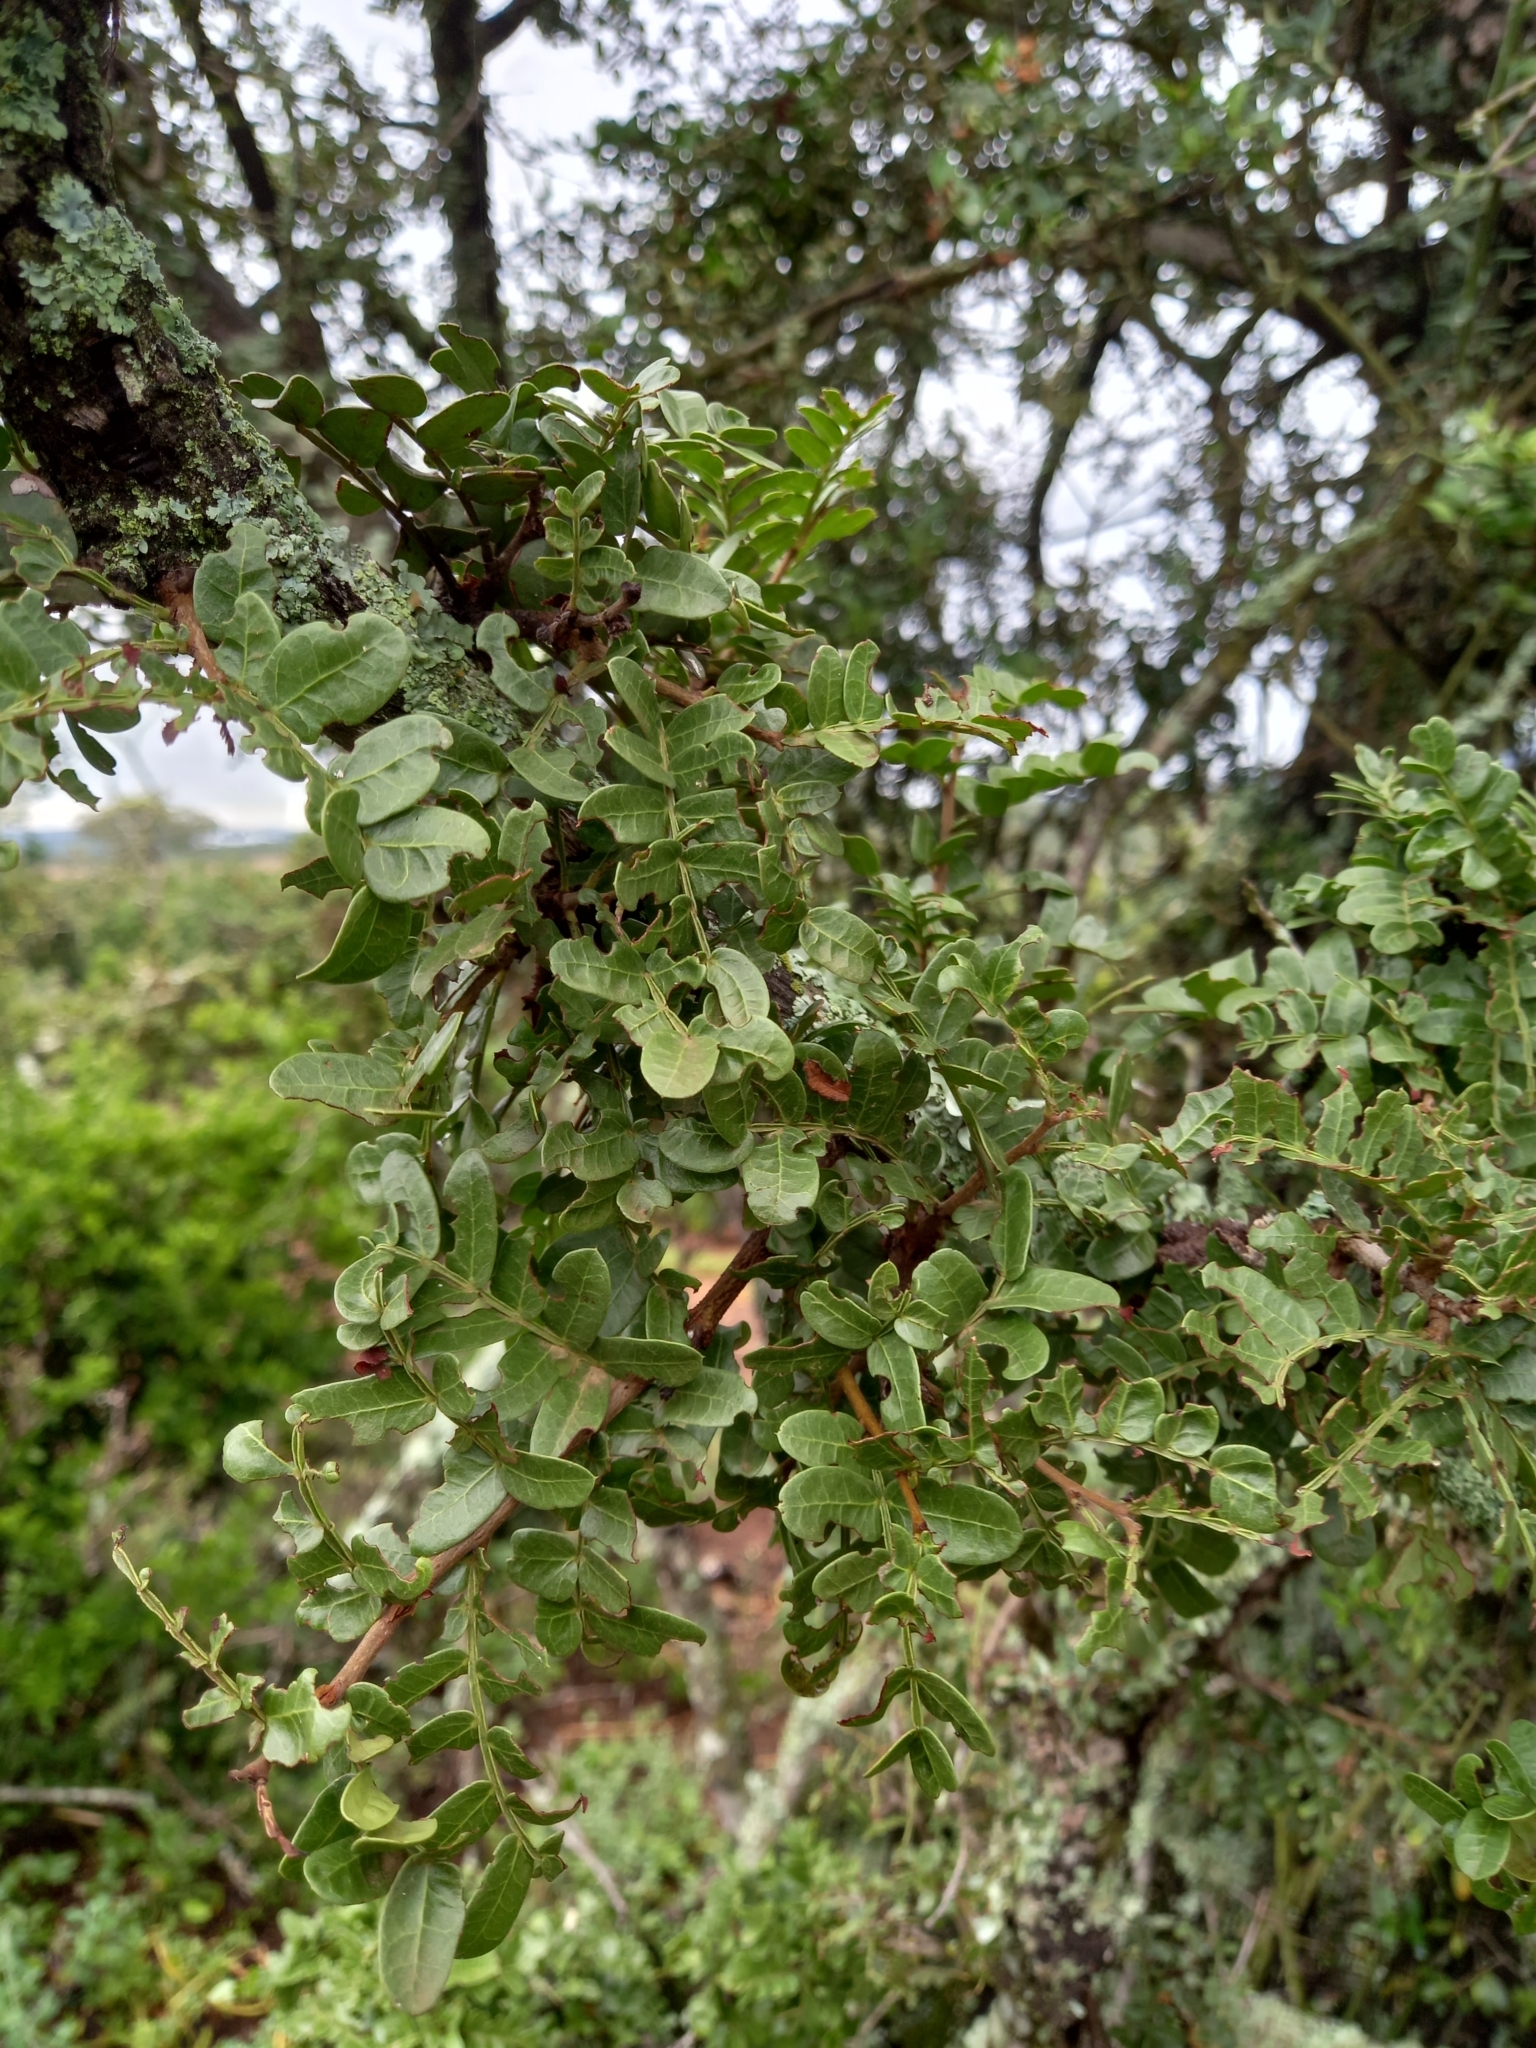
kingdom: Plantae
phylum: Tracheophyta
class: Magnoliopsida
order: Fabales
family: Fabaceae
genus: Schotia
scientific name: Schotia afra
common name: Hottentot's bean
